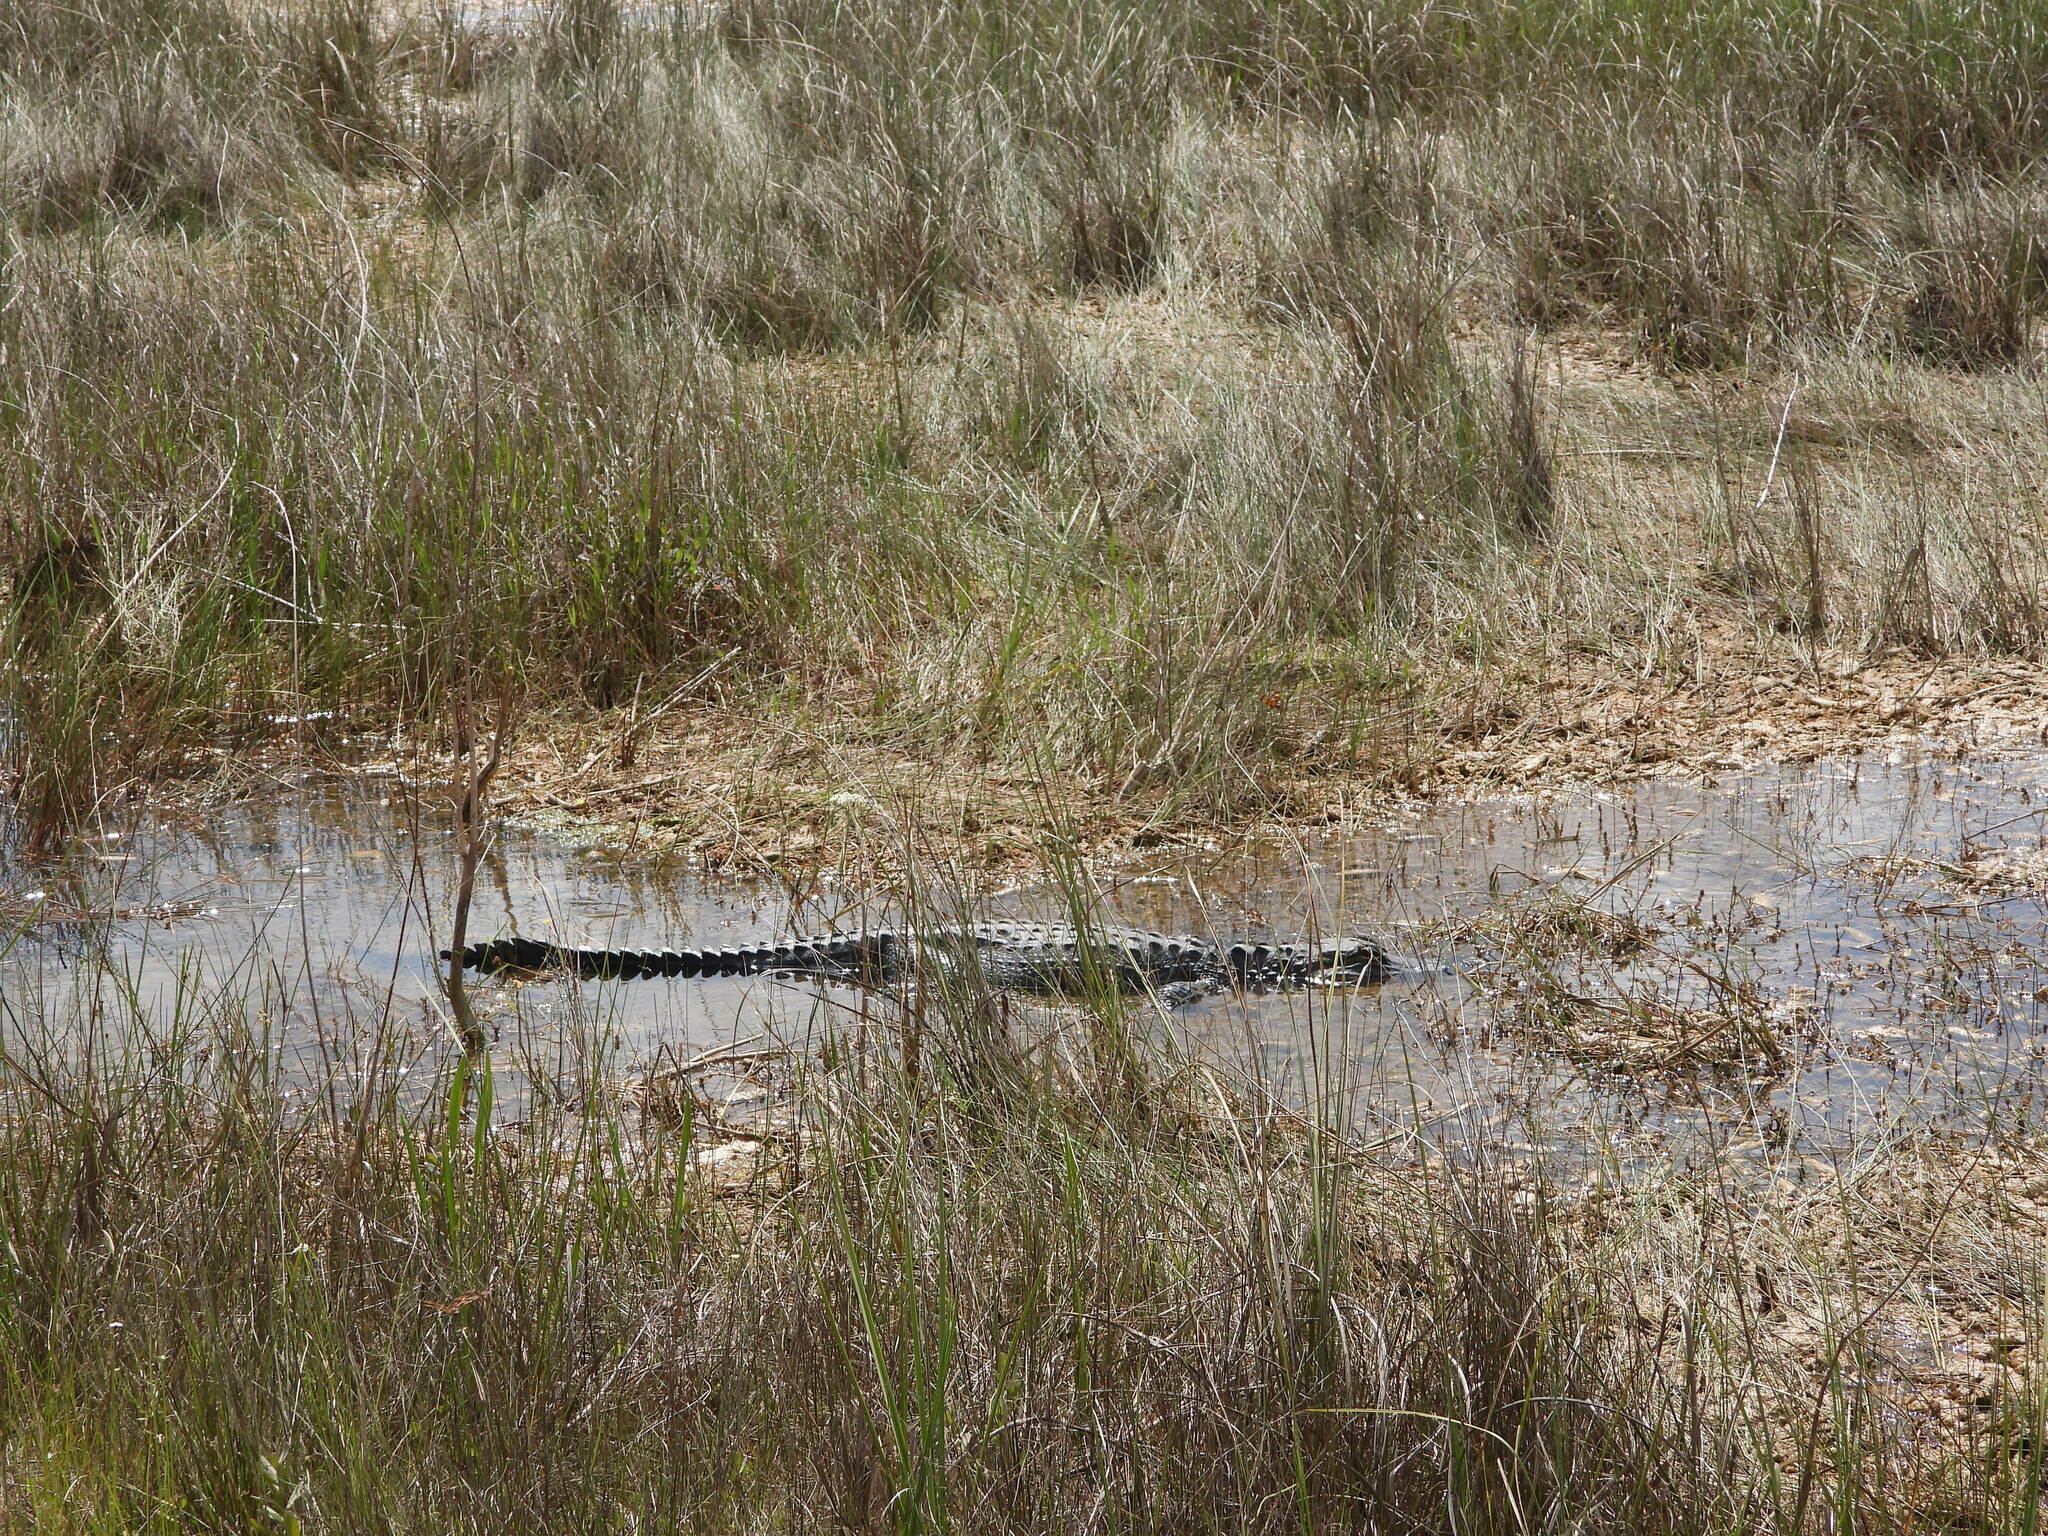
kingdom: Animalia
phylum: Chordata
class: Crocodylia
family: Alligatoridae
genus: Alligator
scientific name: Alligator mississippiensis
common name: American alligator
